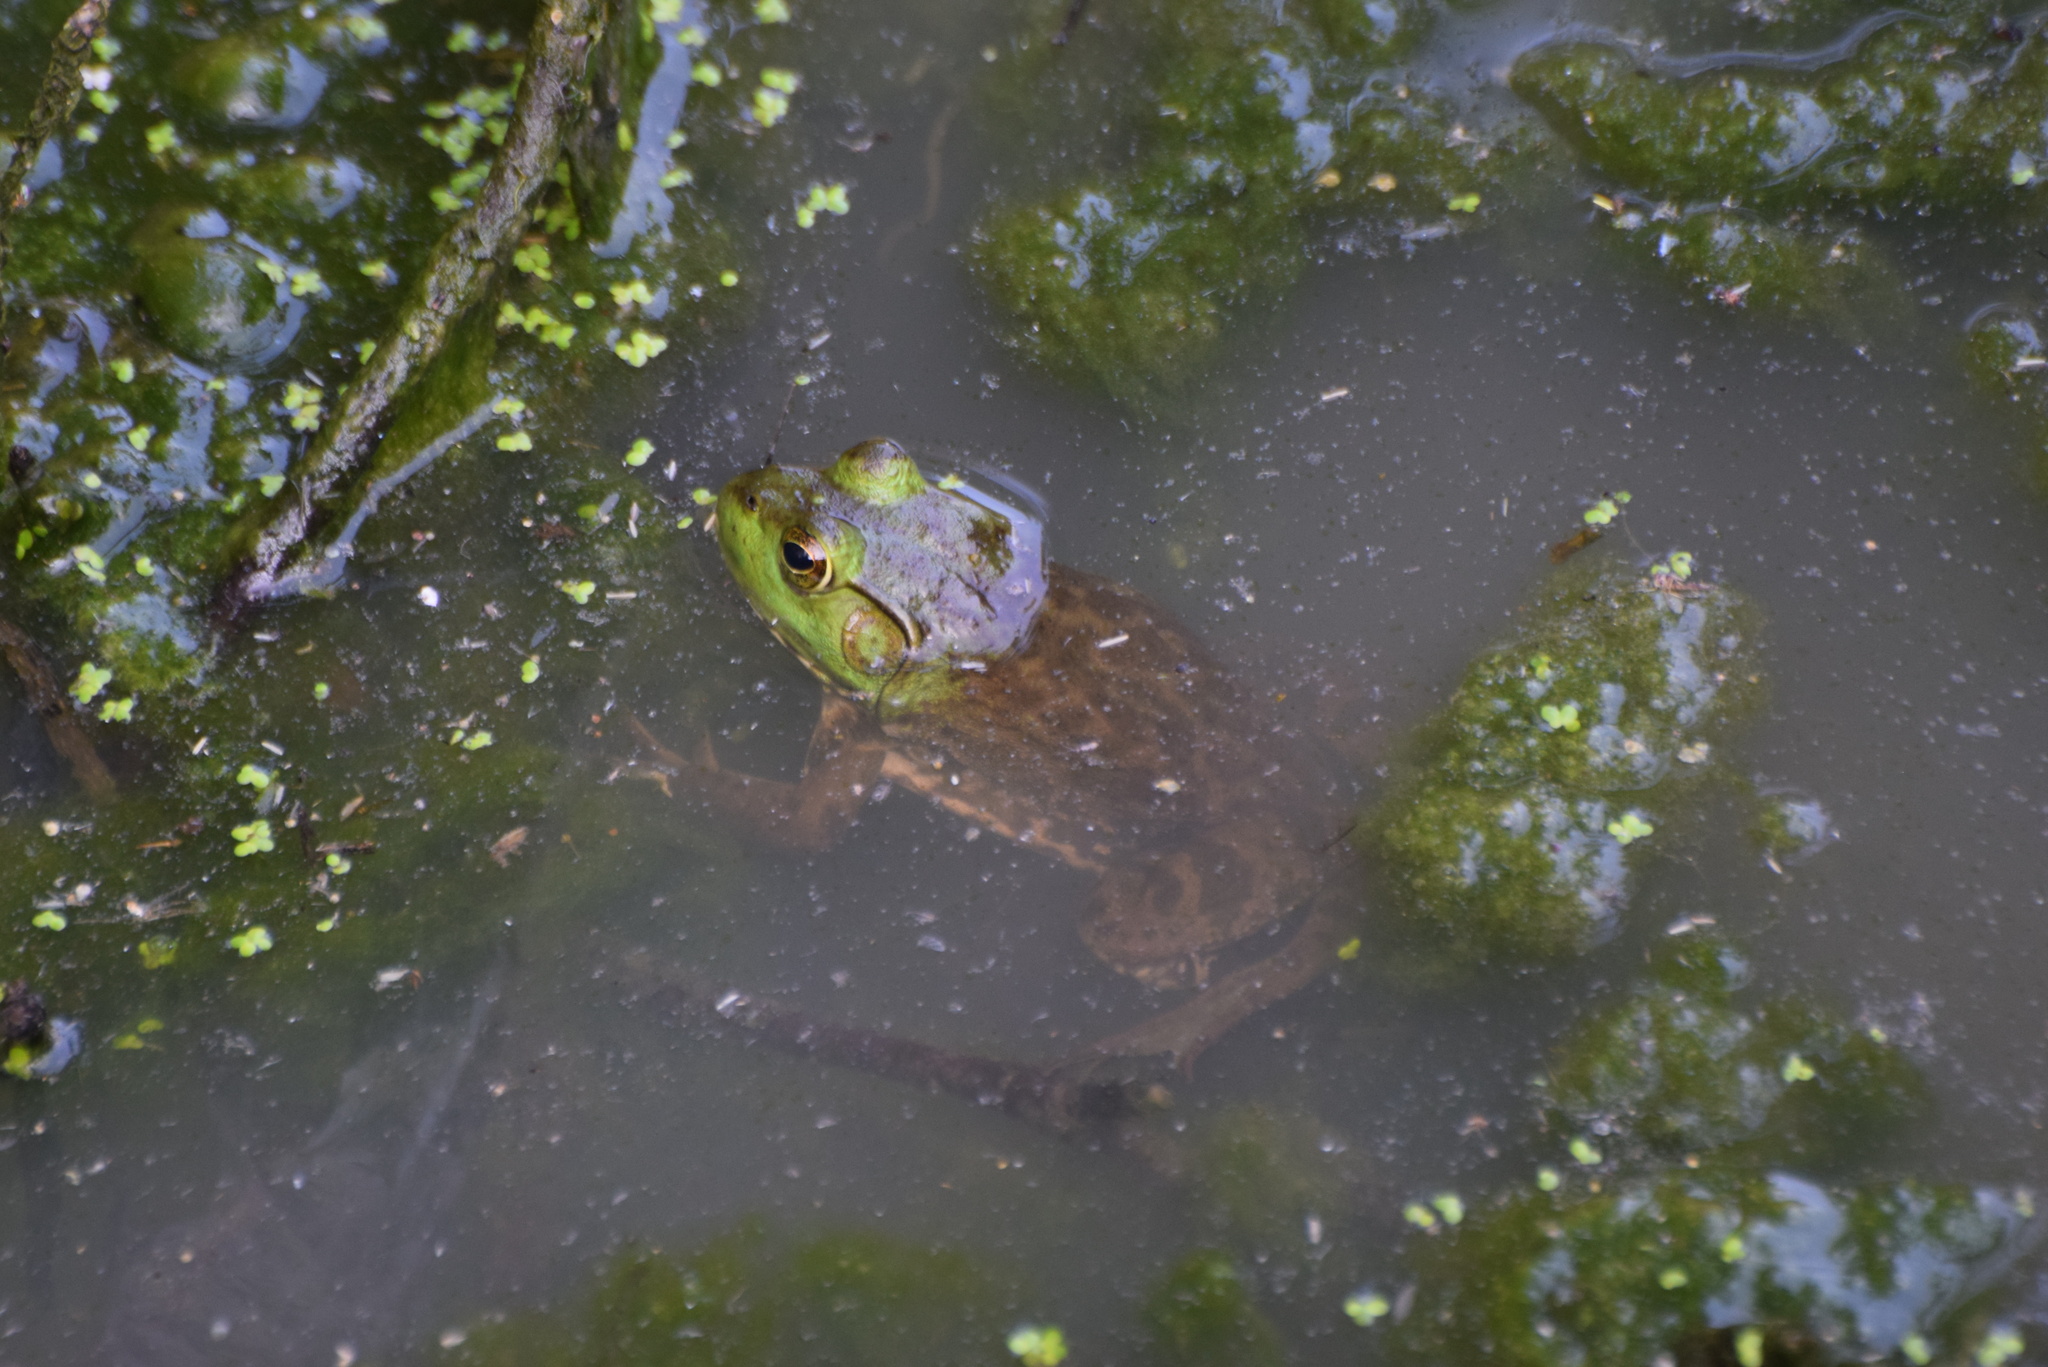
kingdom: Animalia
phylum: Chordata
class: Amphibia
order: Anura
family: Ranidae
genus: Lithobates
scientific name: Lithobates catesbeianus
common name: American bullfrog
